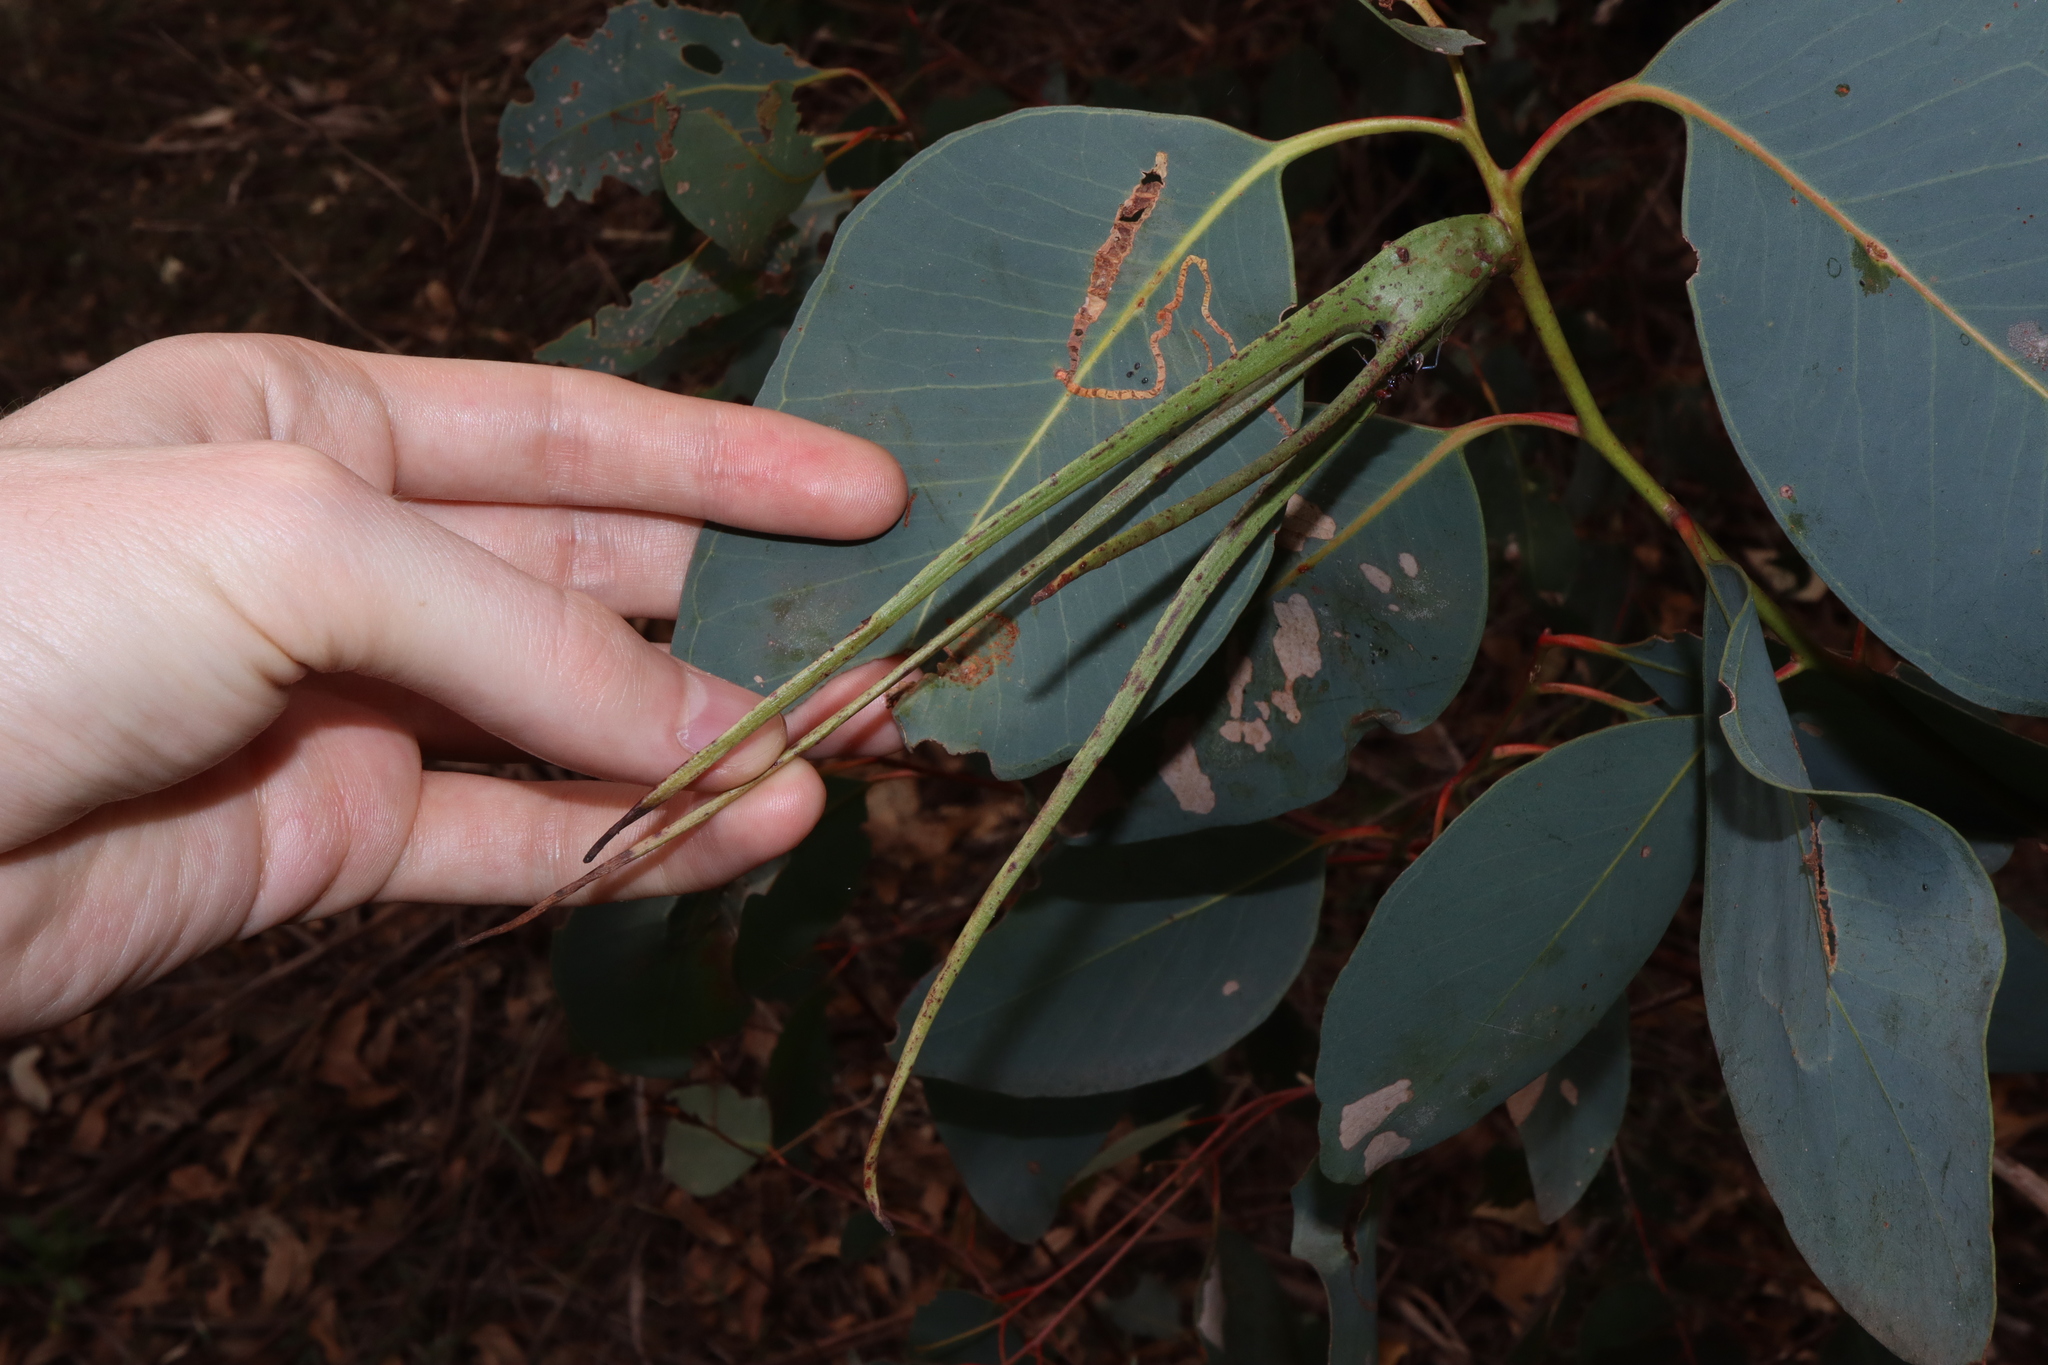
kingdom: Animalia
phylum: Arthropoda
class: Insecta
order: Hemiptera
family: Eriococcidae
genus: Apiomorpha
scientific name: Apiomorpha munita
